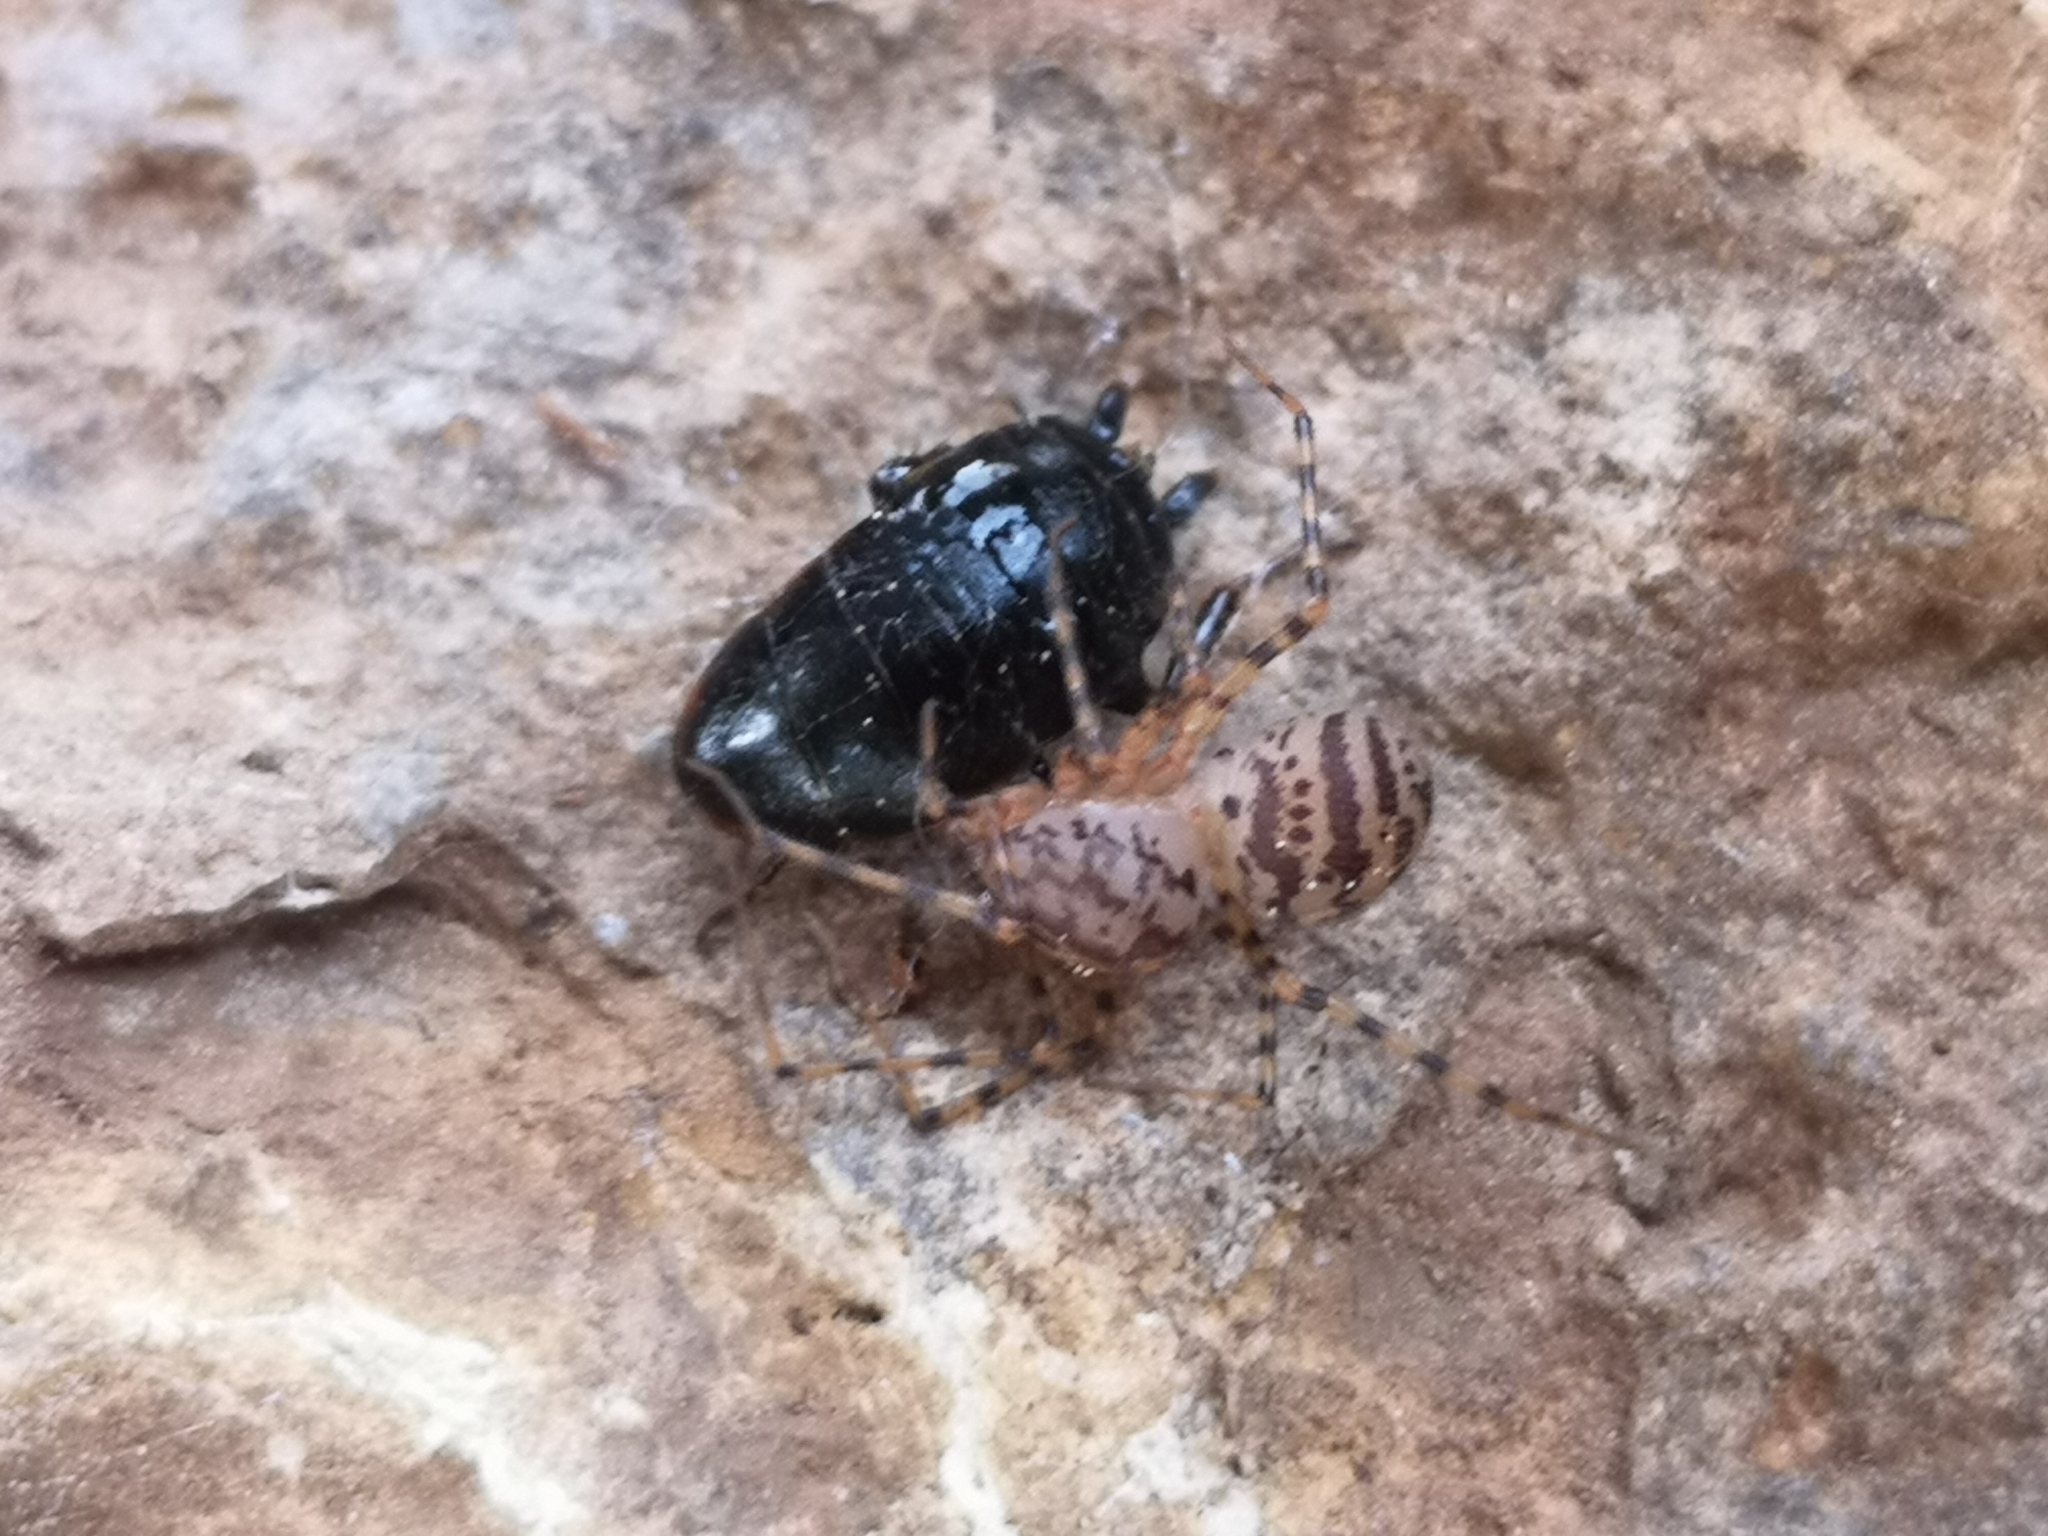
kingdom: Animalia
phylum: Arthropoda
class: Arachnida
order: Araneae
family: Scytodidae
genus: Scytodes
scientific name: Scytodes thoracica
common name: Spitting spider
